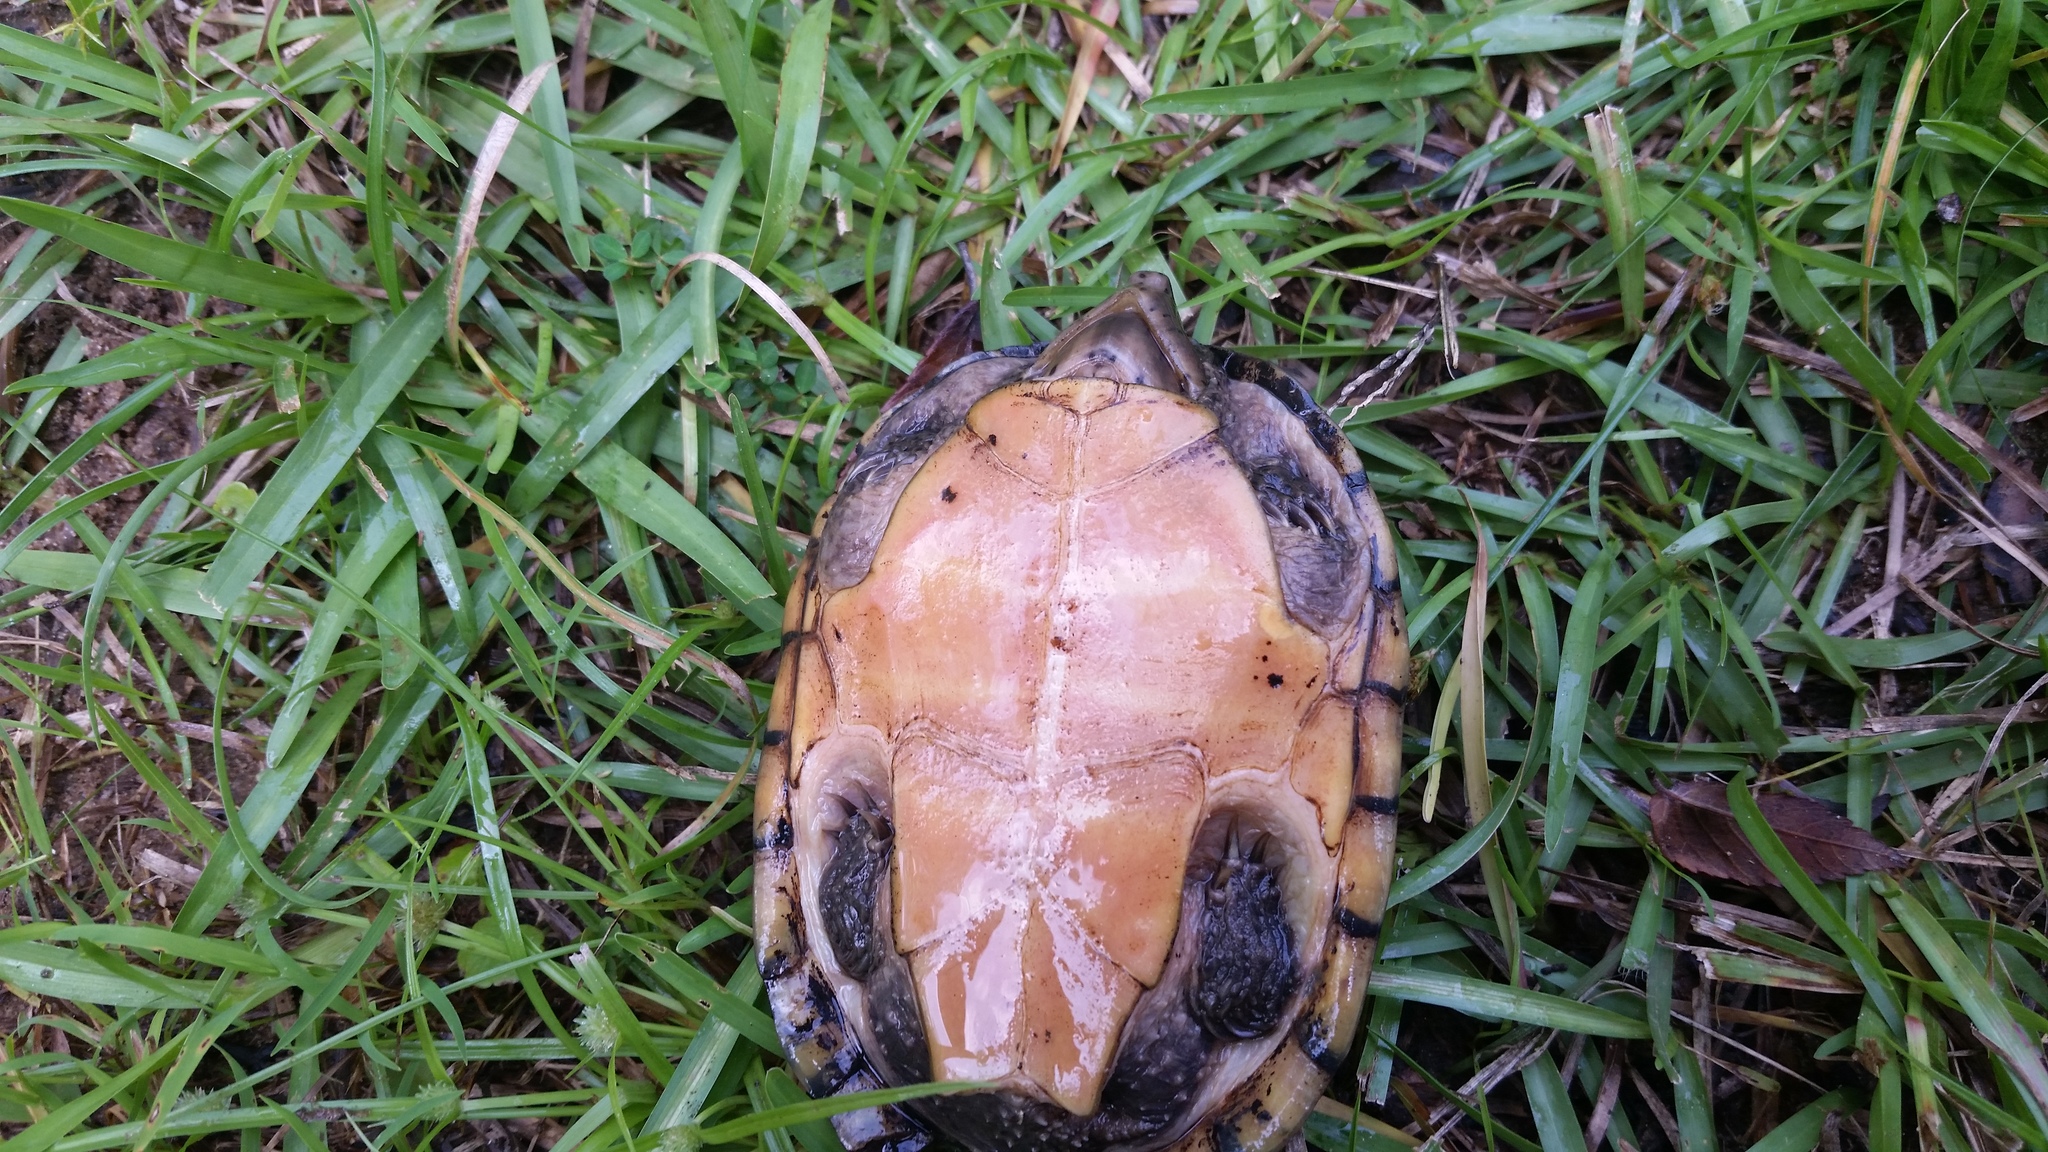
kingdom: Animalia
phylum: Chordata
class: Testudines
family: Kinosternidae
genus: Sternotherus
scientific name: Sternotherus odoratus
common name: Common musk turtle
